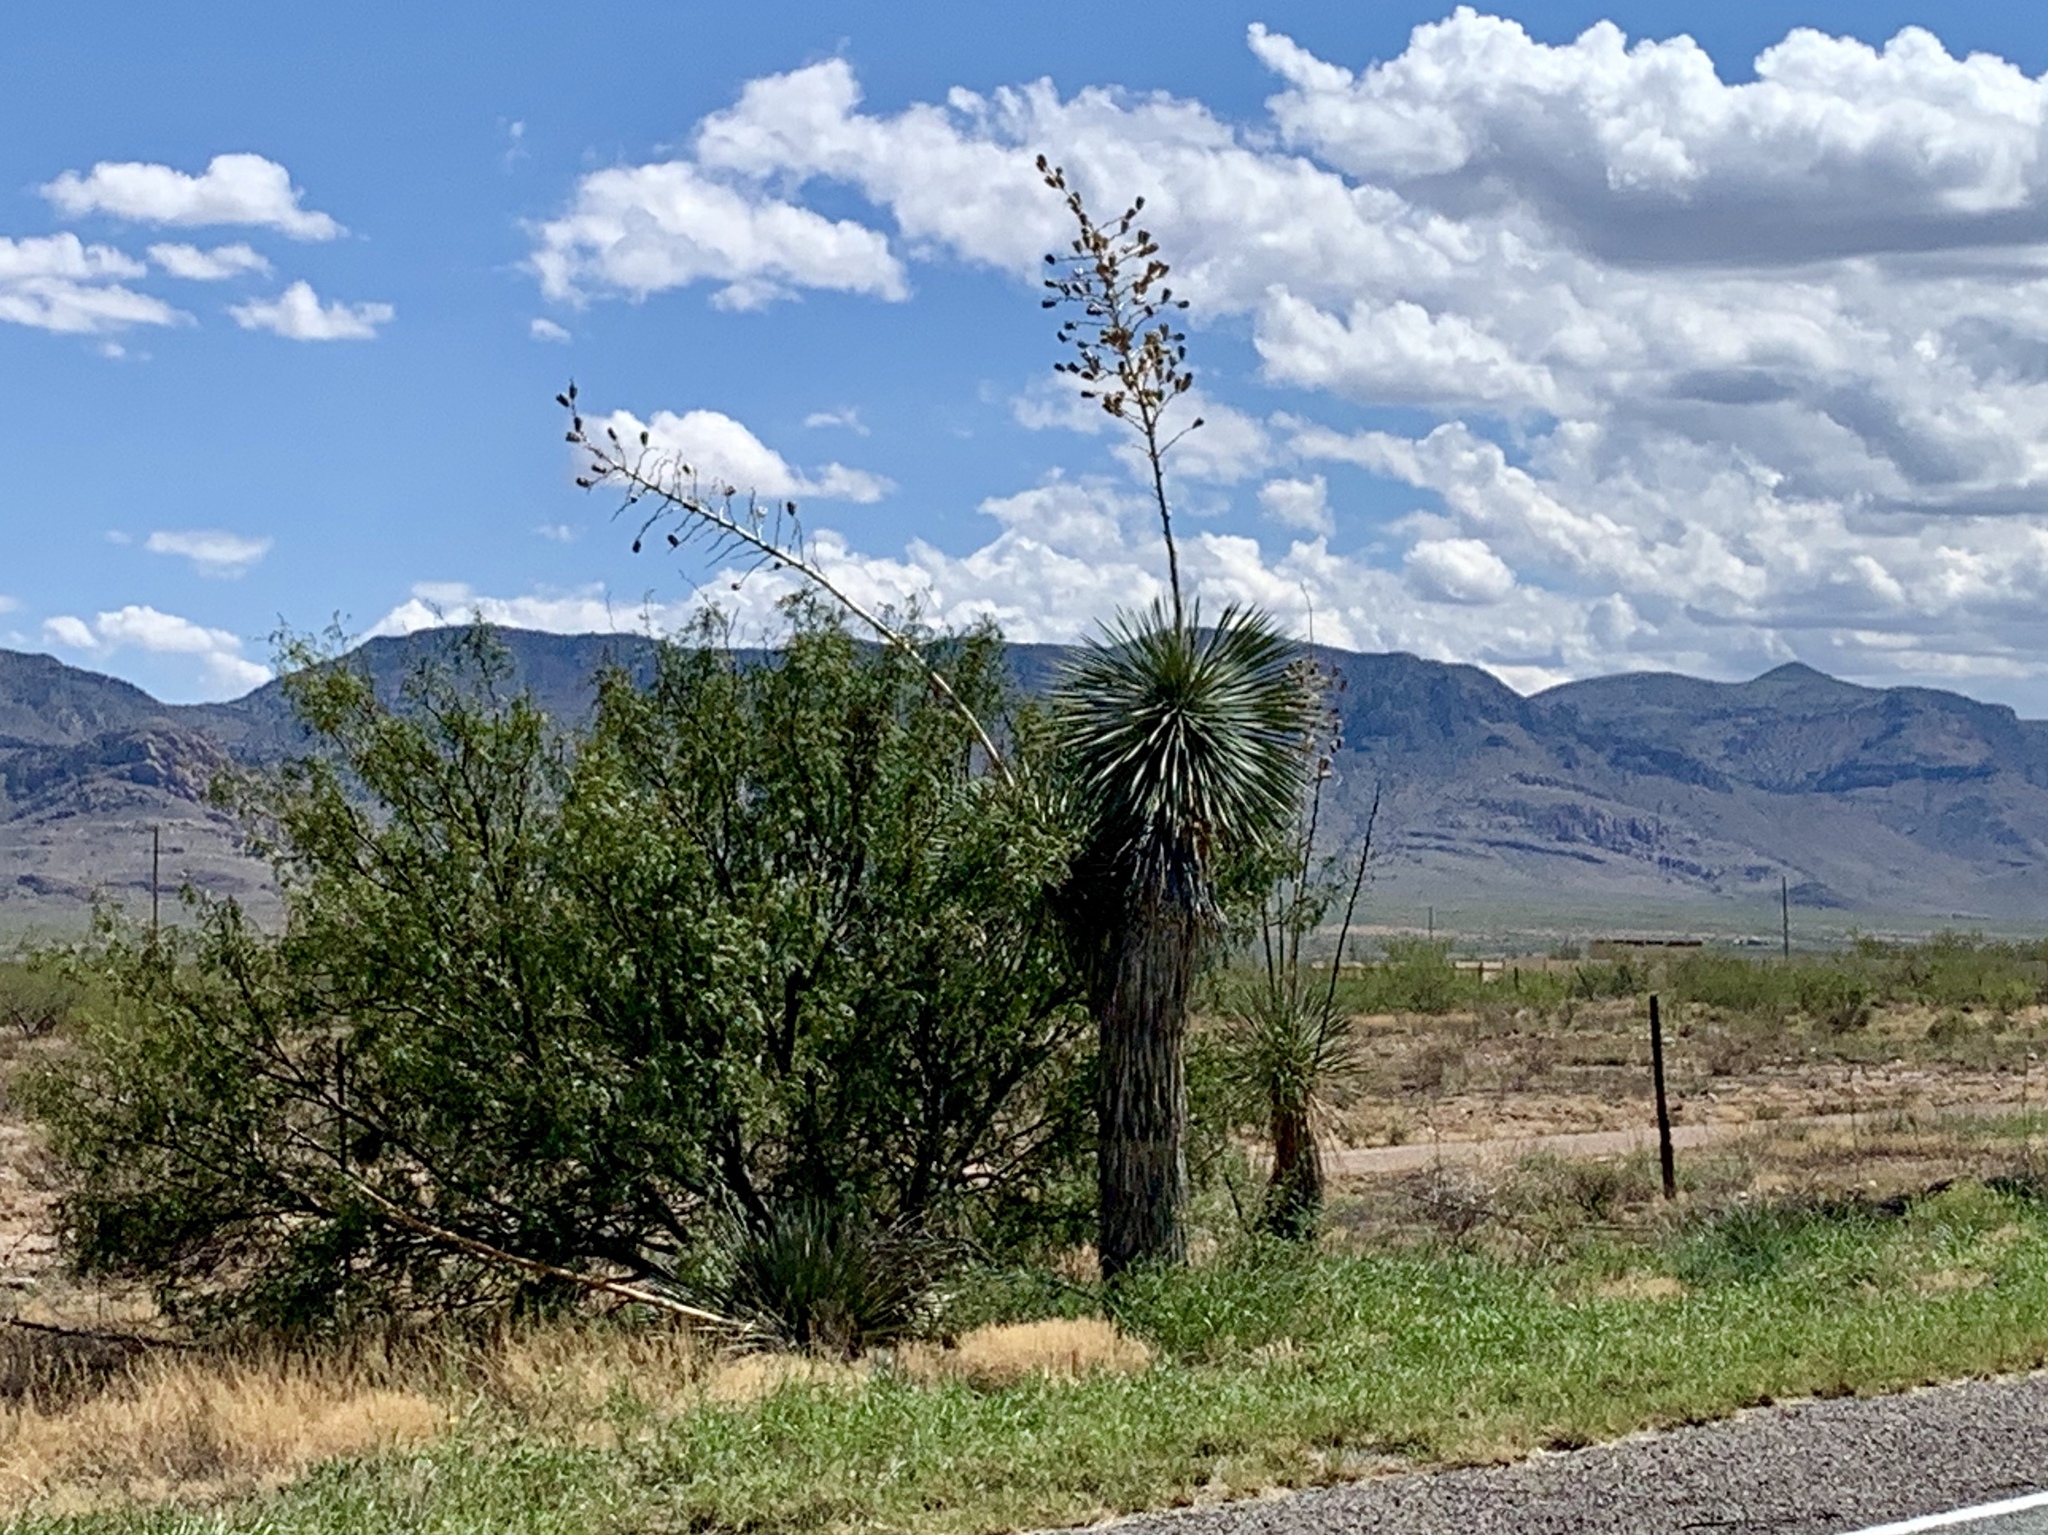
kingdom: Plantae
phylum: Tracheophyta
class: Liliopsida
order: Asparagales
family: Asparagaceae
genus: Yucca
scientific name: Yucca elata
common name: Palmella
